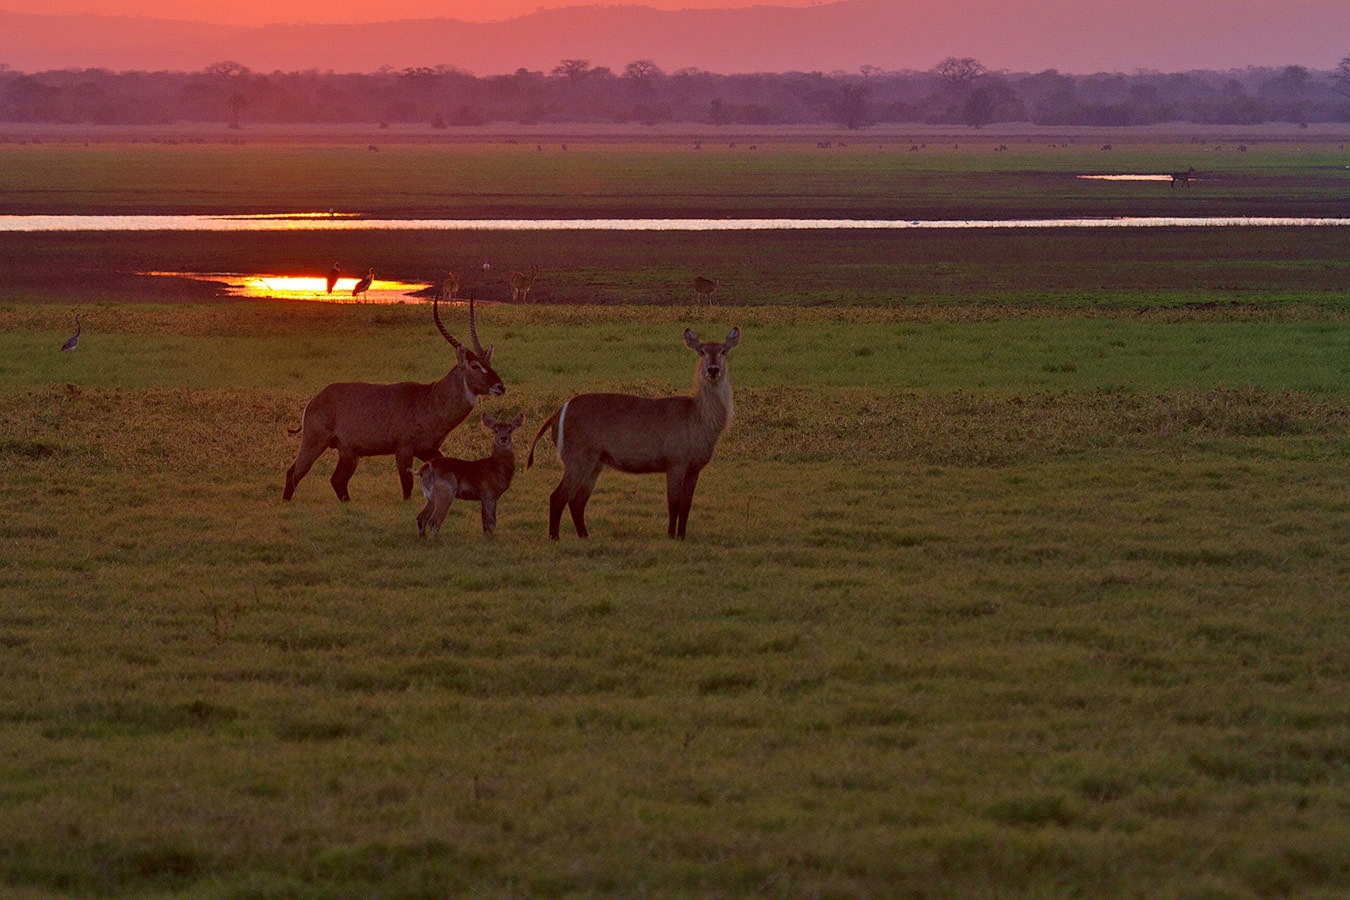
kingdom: Animalia
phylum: Chordata
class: Mammalia
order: Artiodactyla
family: Bovidae
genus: Kobus
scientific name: Kobus ellipsiprymnus
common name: Waterbuck
